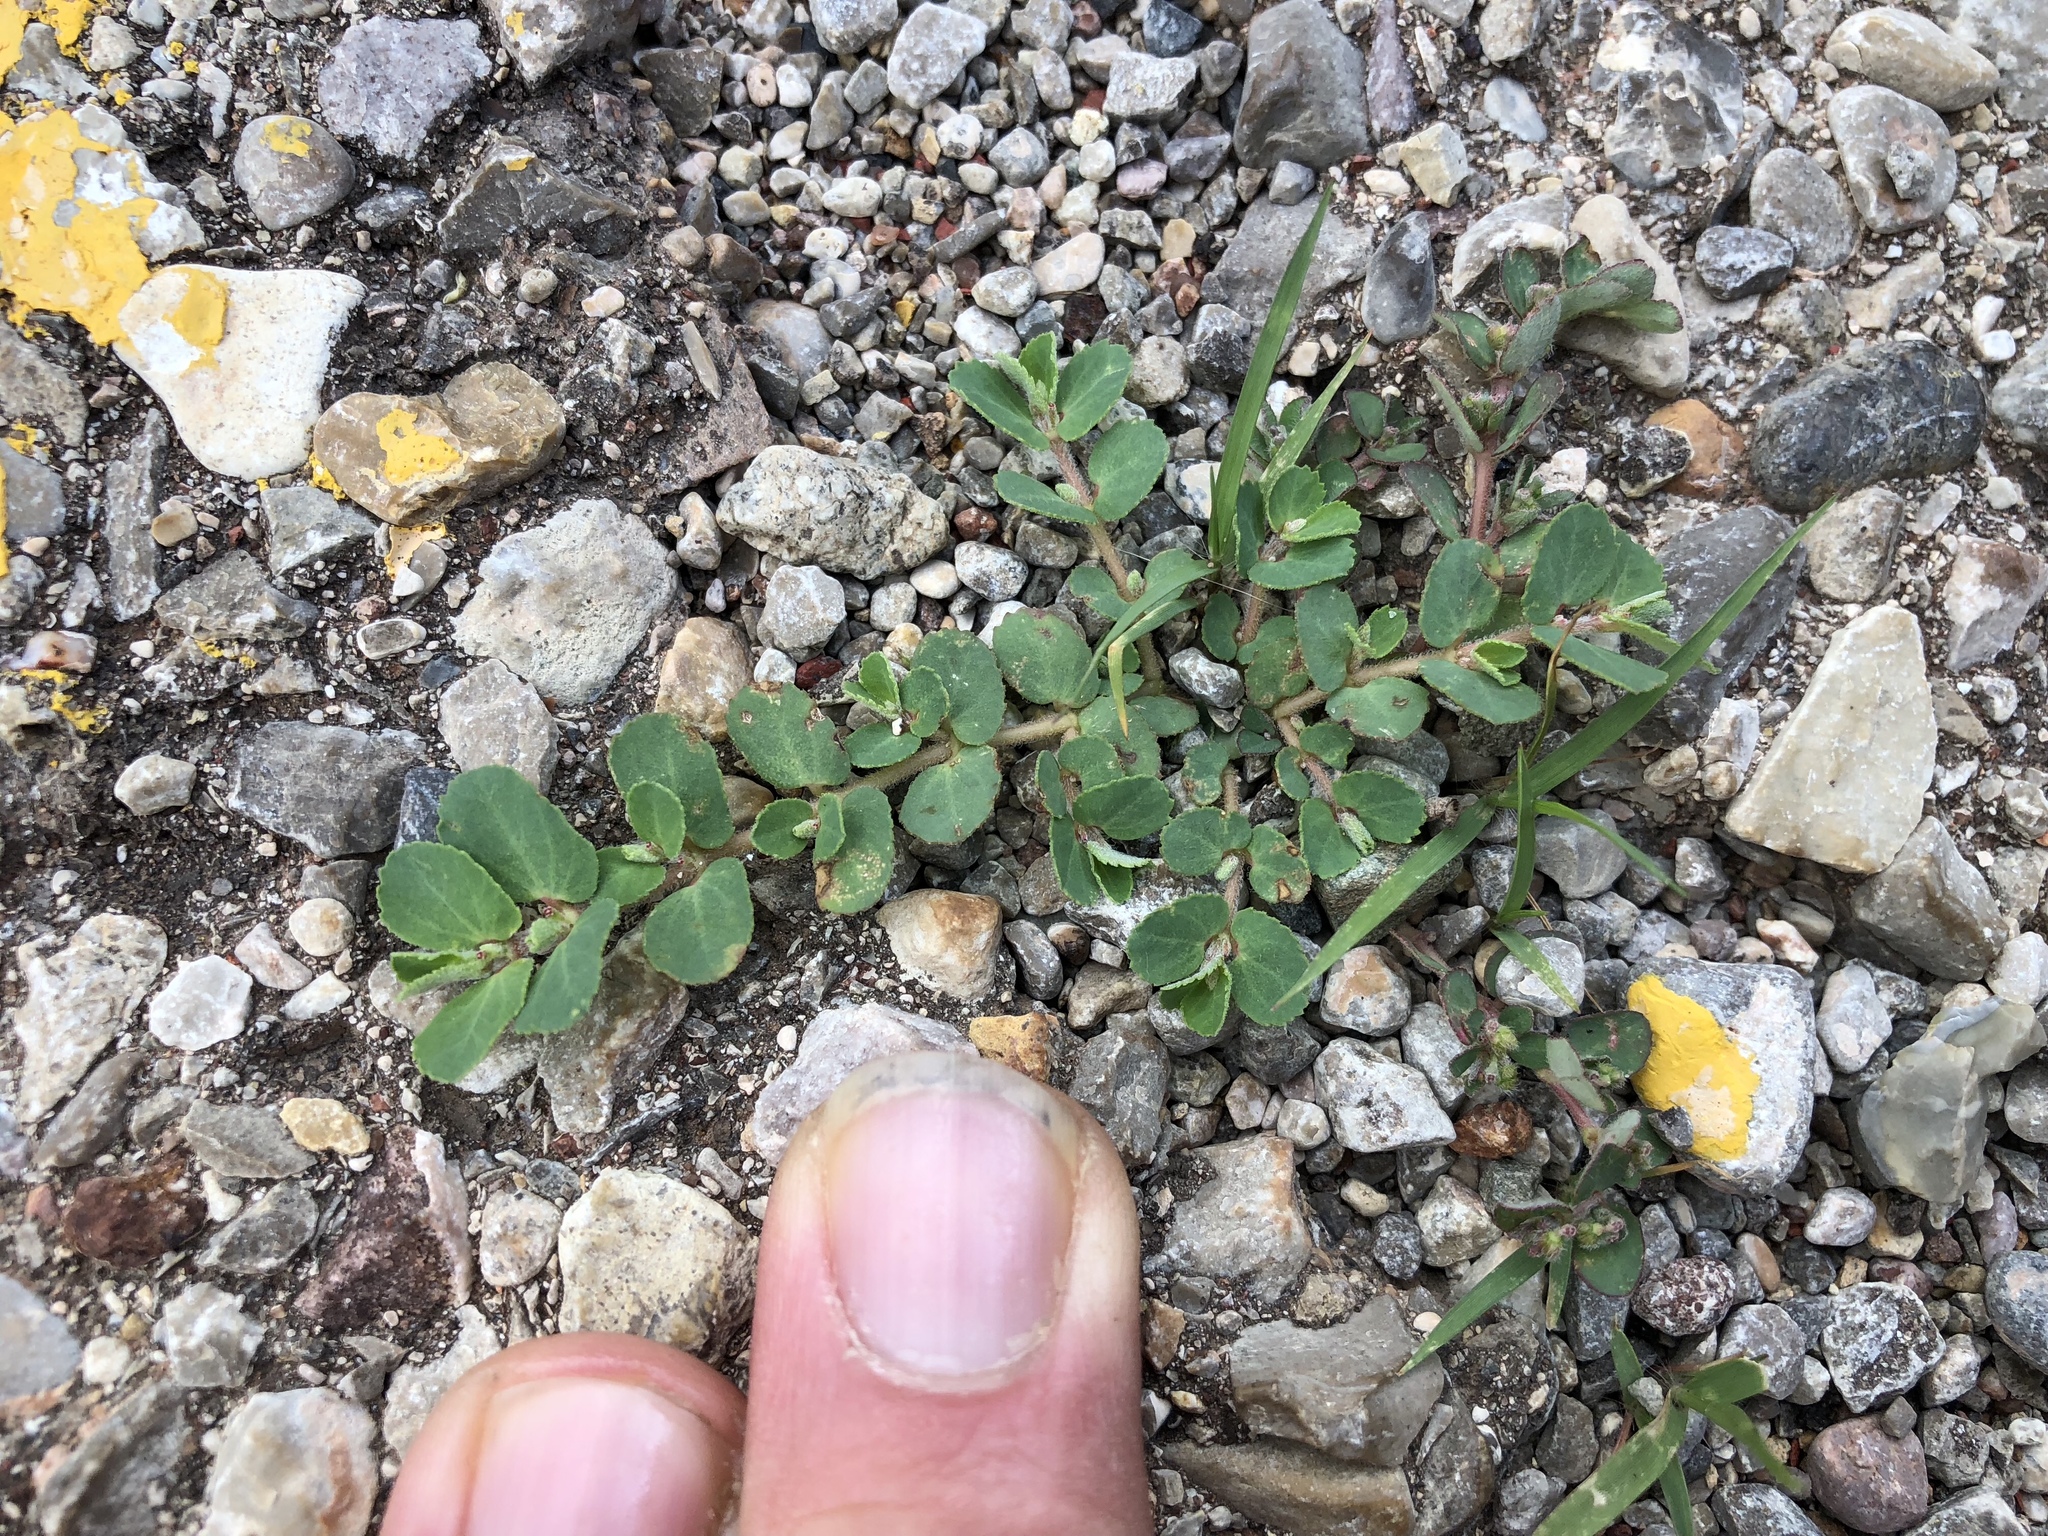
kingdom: Plantae
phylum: Tracheophyta
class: Magnoliopsida
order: Malpighiales
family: Euphorbiaceae
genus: Euphorbia
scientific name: Euphorbia stictospora
